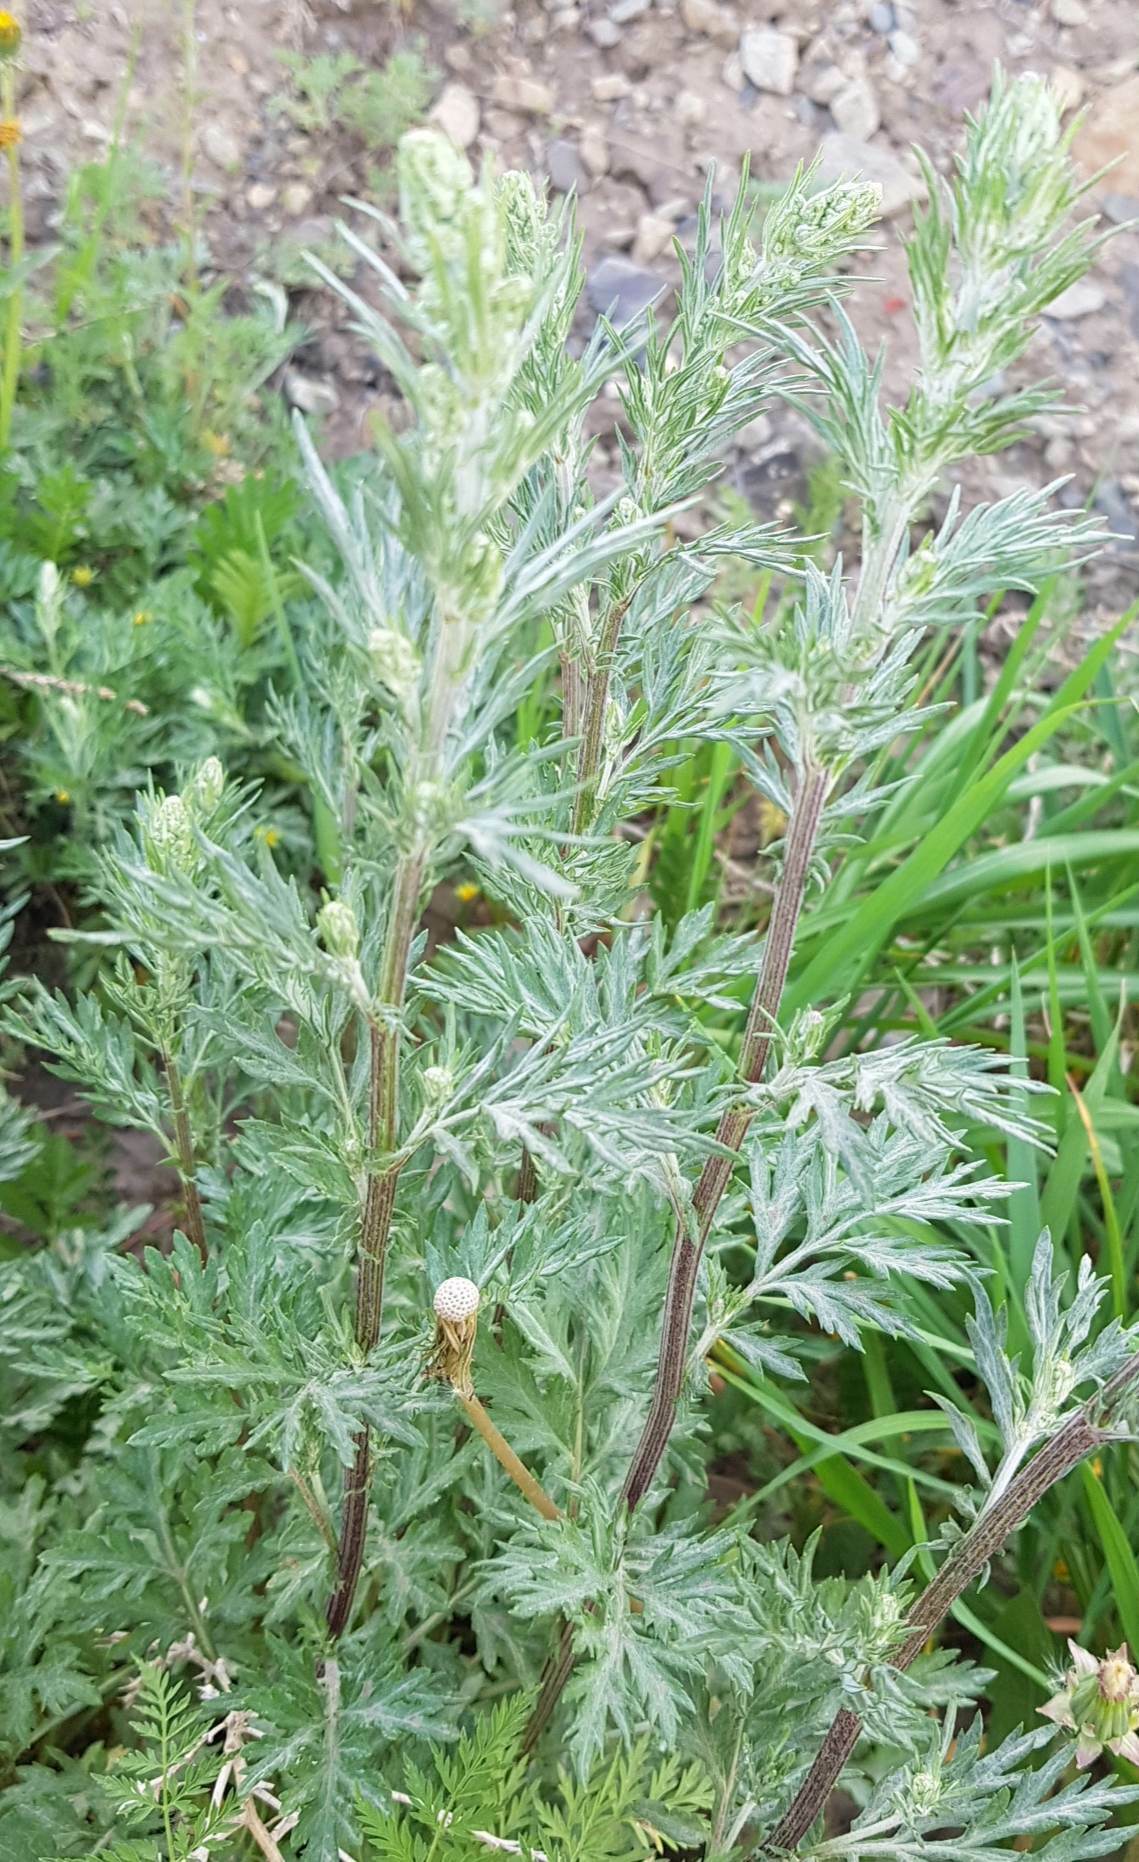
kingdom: Plantae
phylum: Tracheophyta
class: Magnoliopsida
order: Asterales
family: Asteraceae
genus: Artemisia
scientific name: Artemisia sieversiana
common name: Sieversian wormwood
